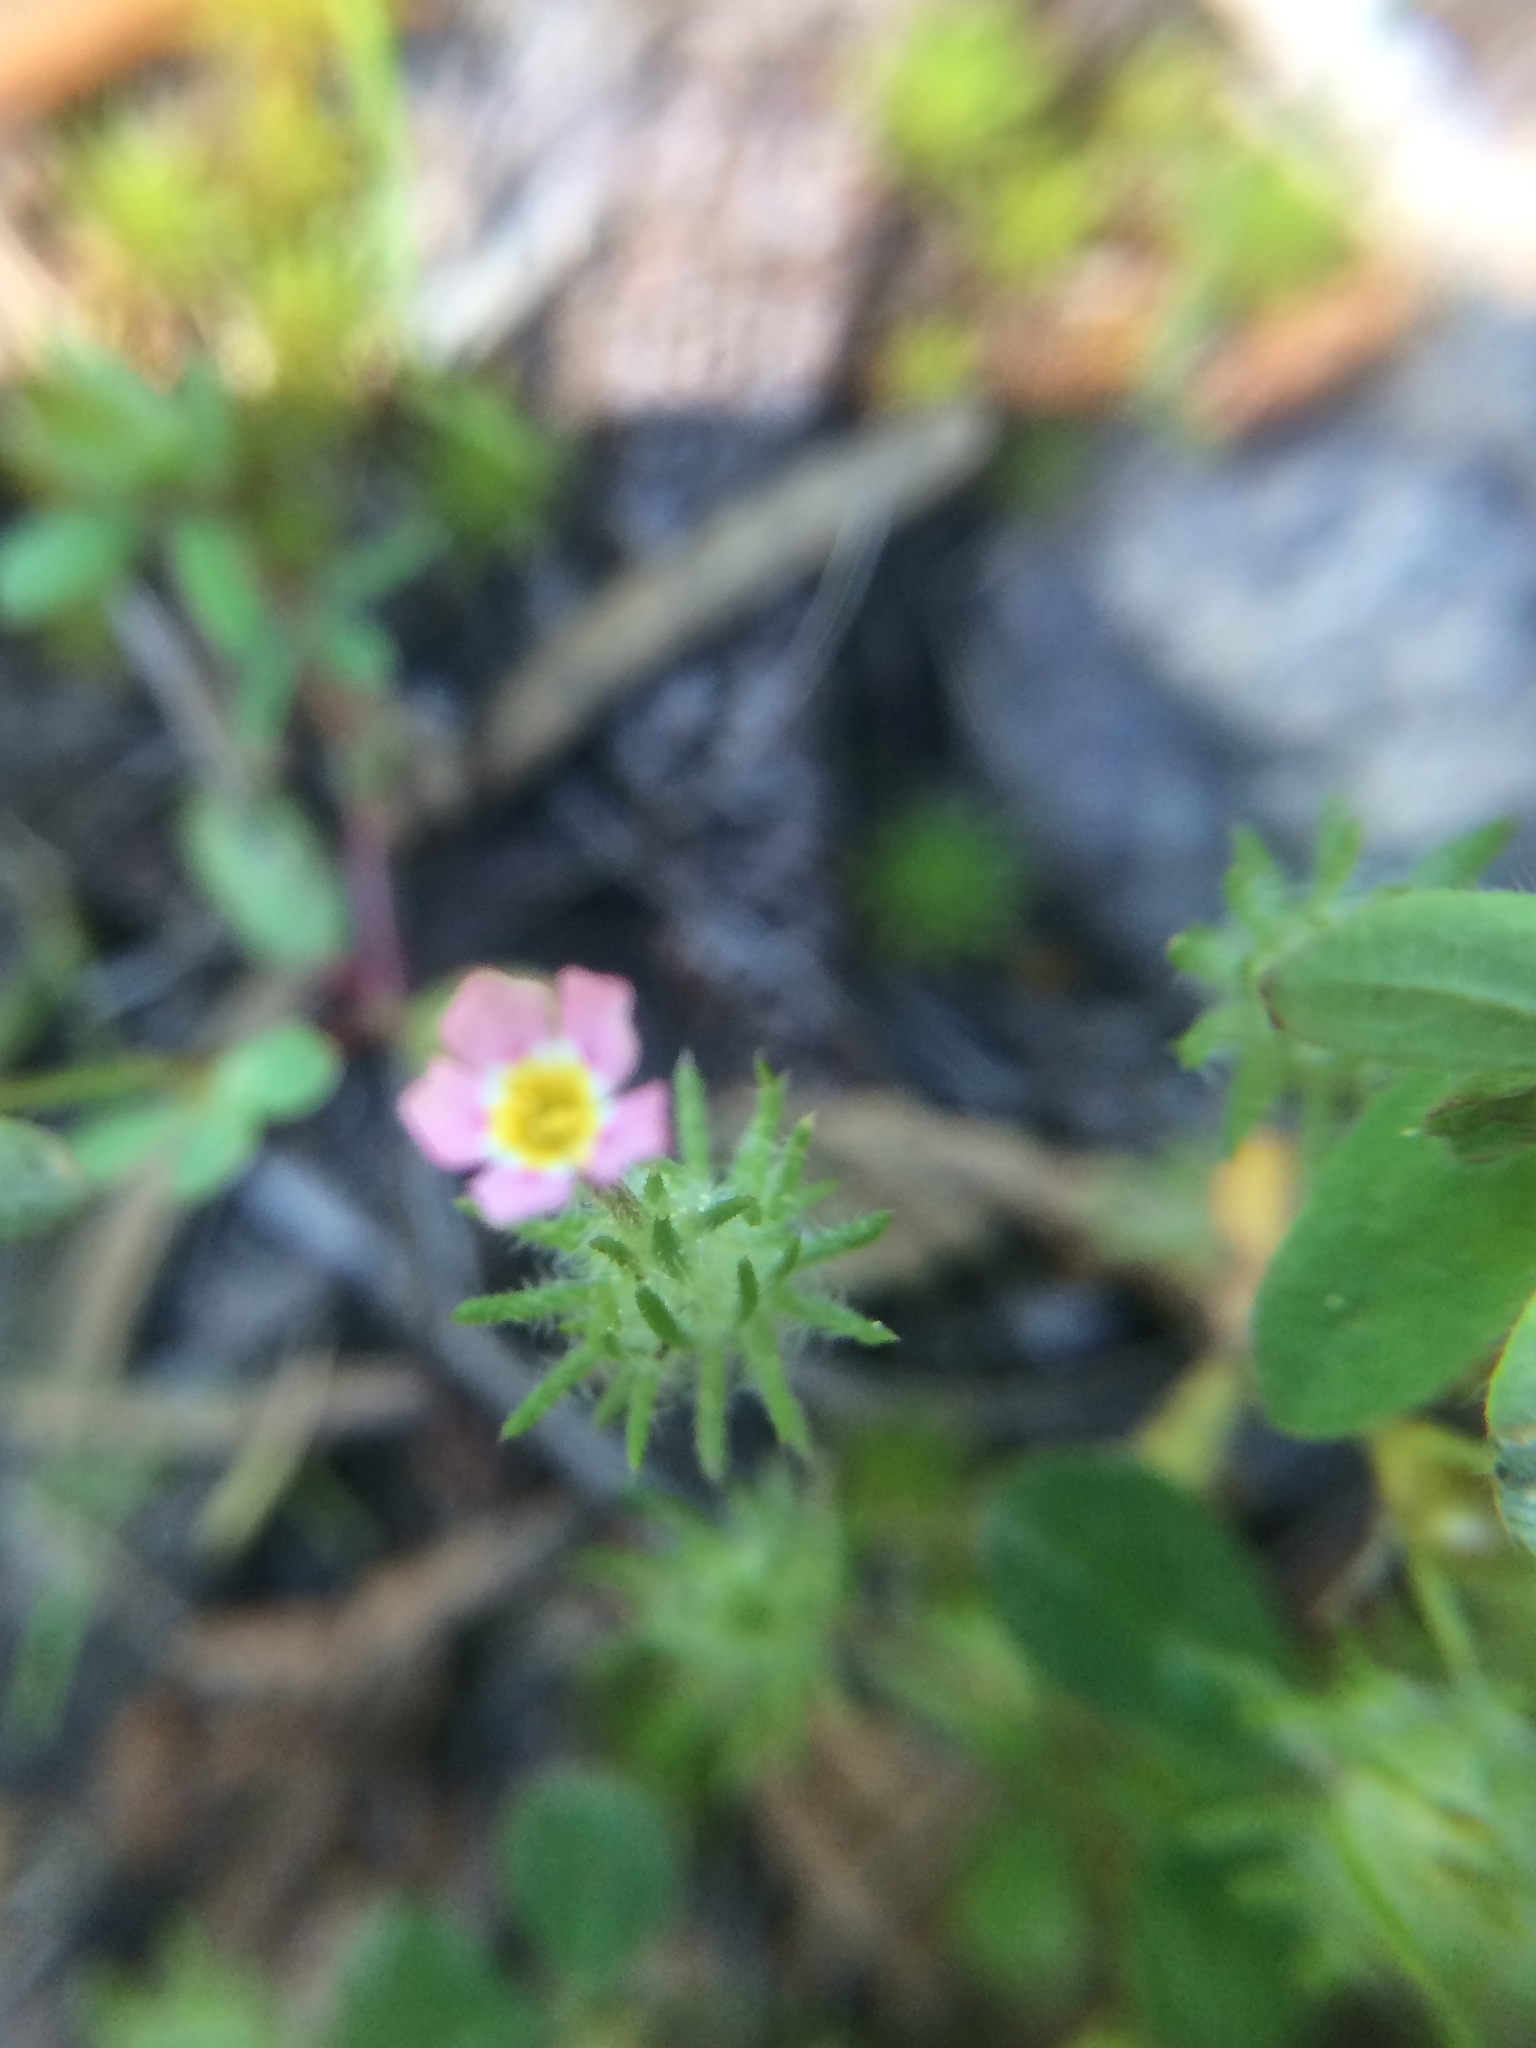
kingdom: Plantae
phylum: Tracheophyta
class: Magnoliopsida
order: Ericales
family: Polemoniaceae
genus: Leptosiphon
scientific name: Leptosiphon ciliatus
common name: Whiskerbrush
